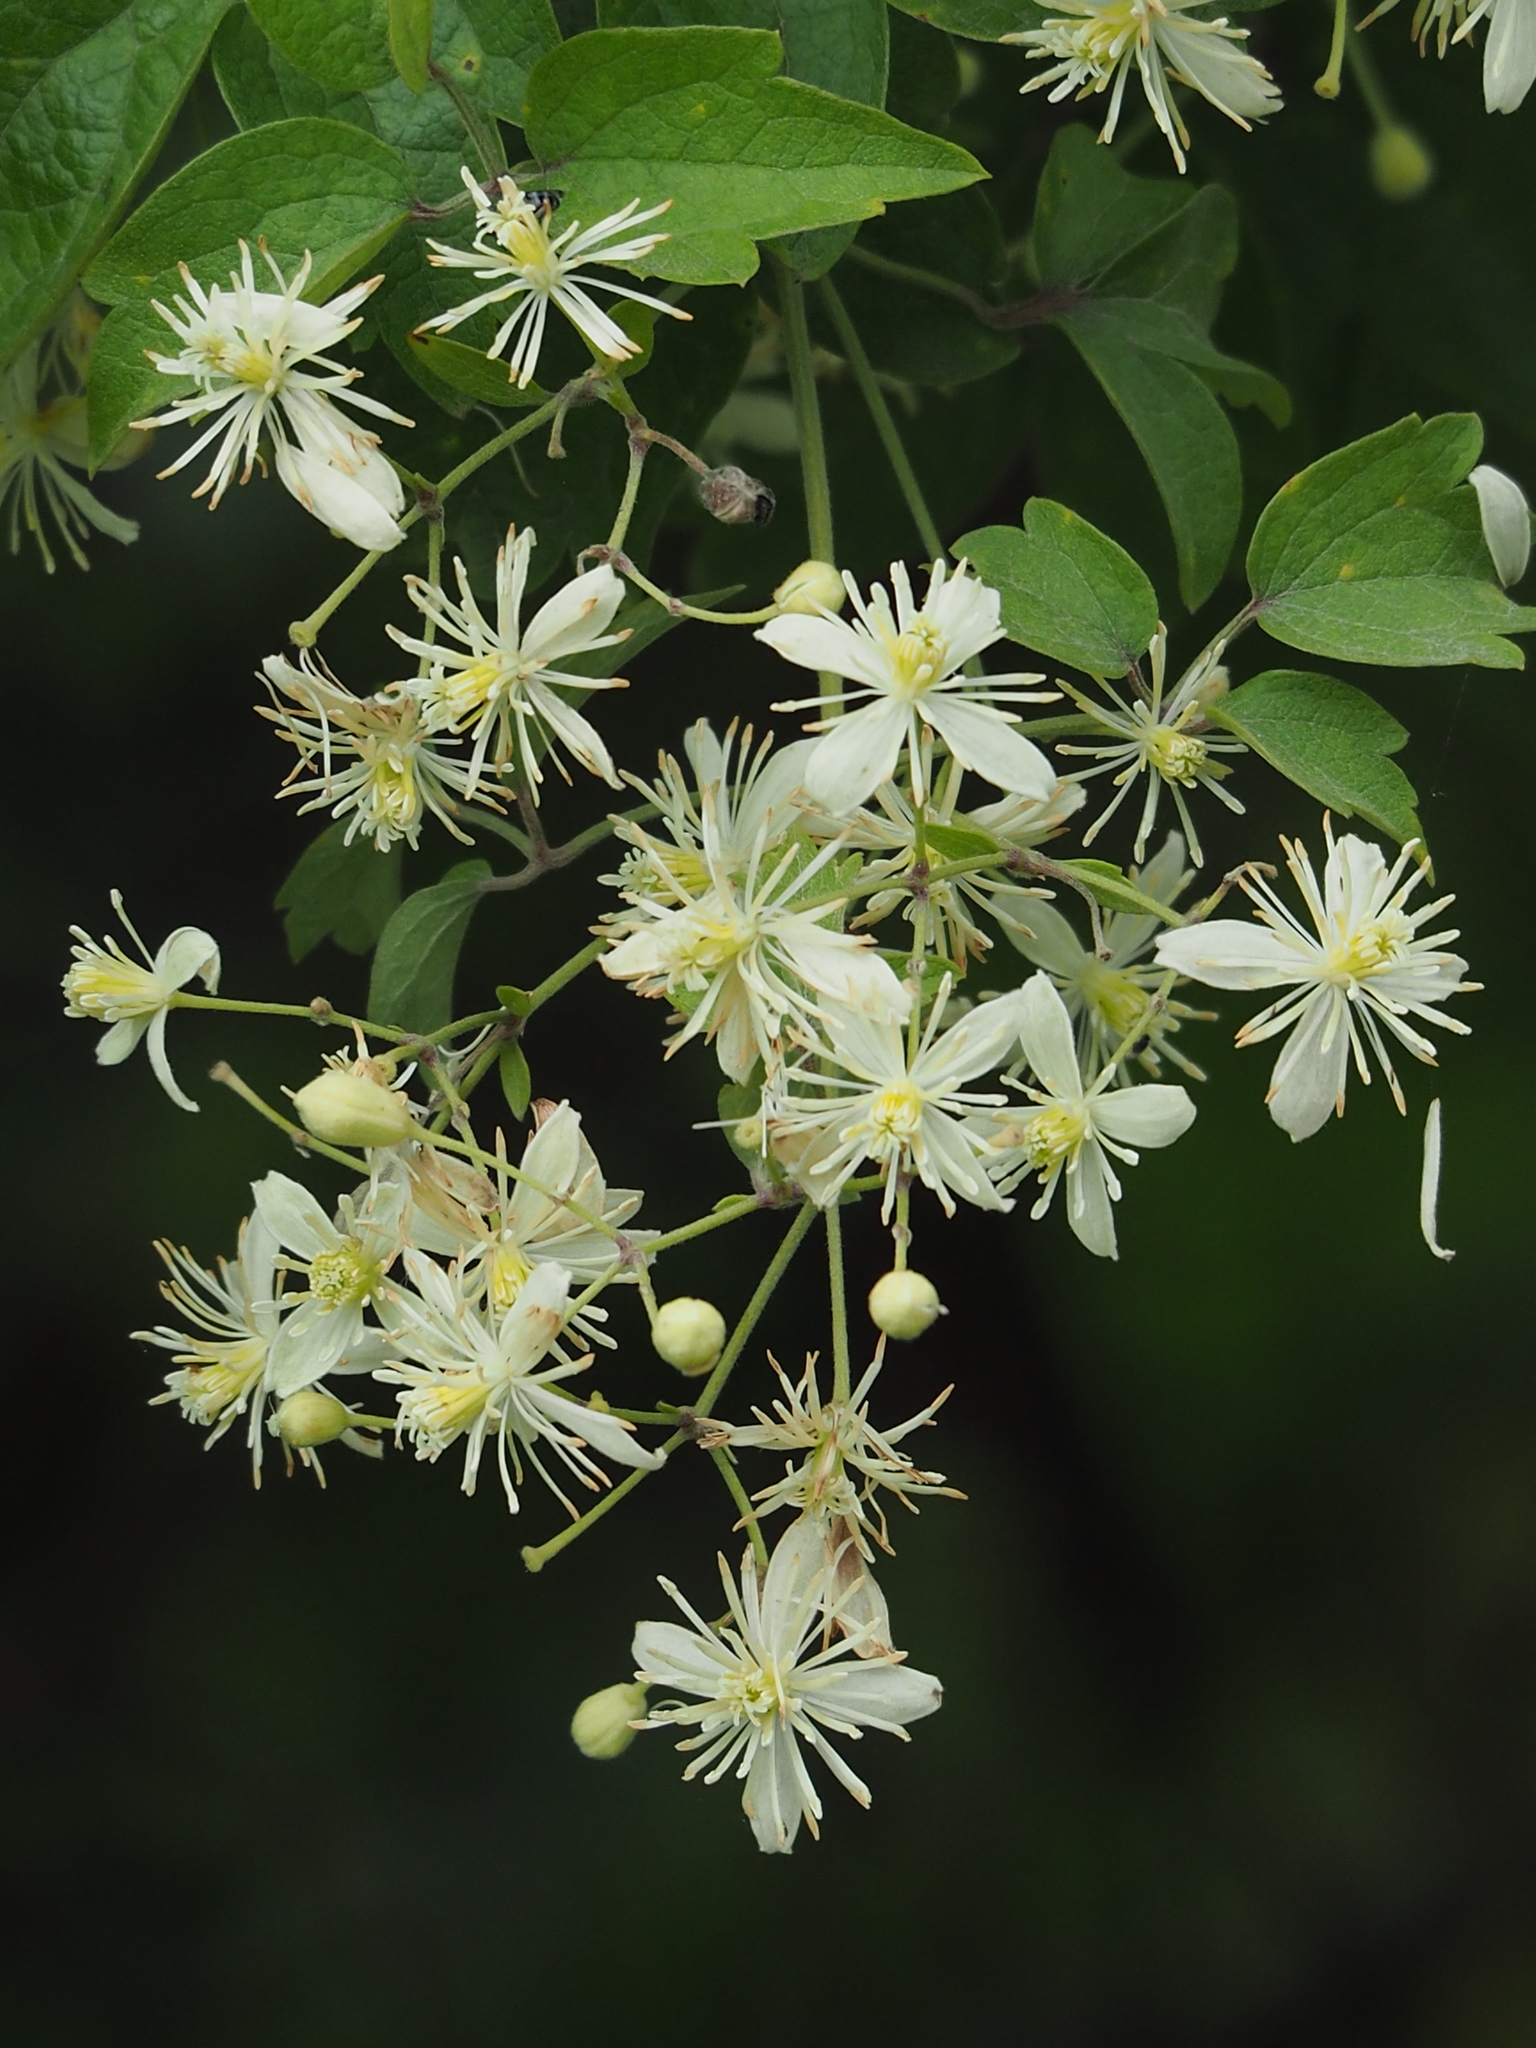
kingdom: Plantae
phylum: Tracheophyta
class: Magnoliopsida
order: Ranunculales
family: Ranunculaceae
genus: Clematis
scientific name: Clematis grata
